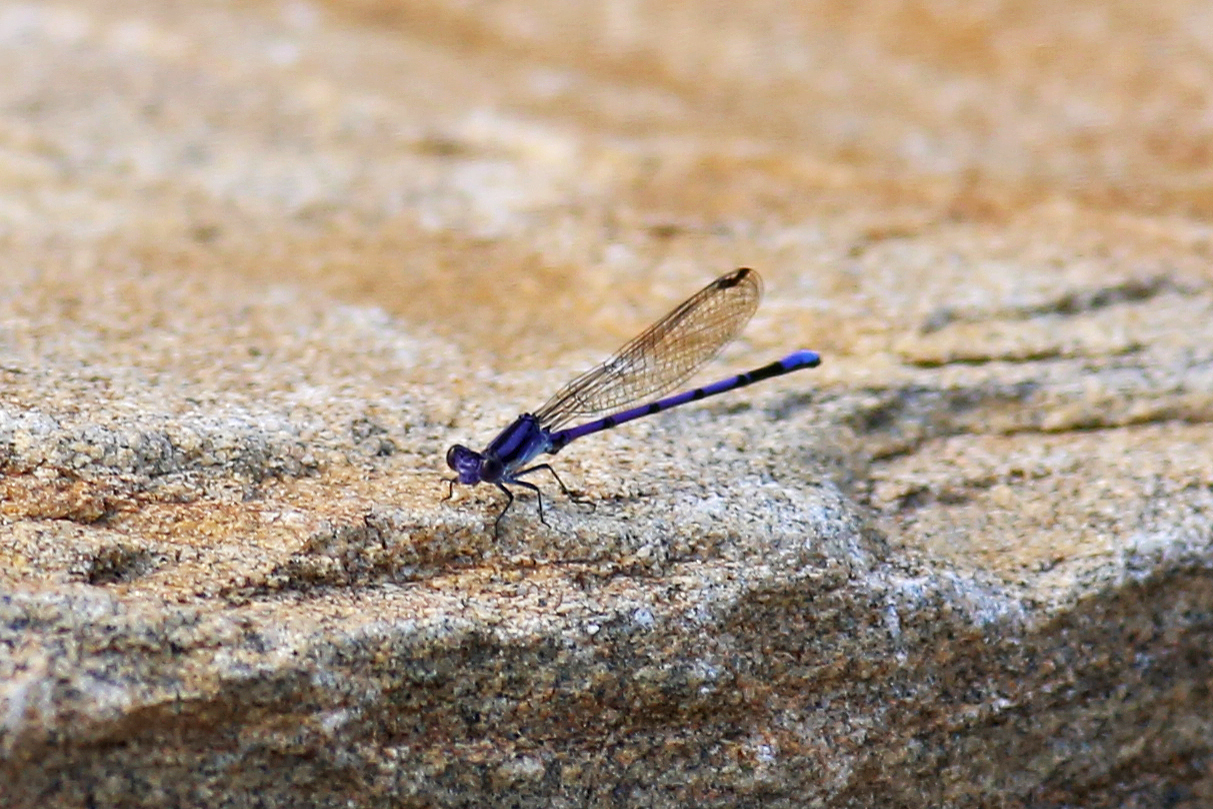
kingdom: Animalia
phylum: Arthropoda
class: Insecta
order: Odonata
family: Coenagrionidae
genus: Argia
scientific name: Argia fumipennis
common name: Variable dancer
